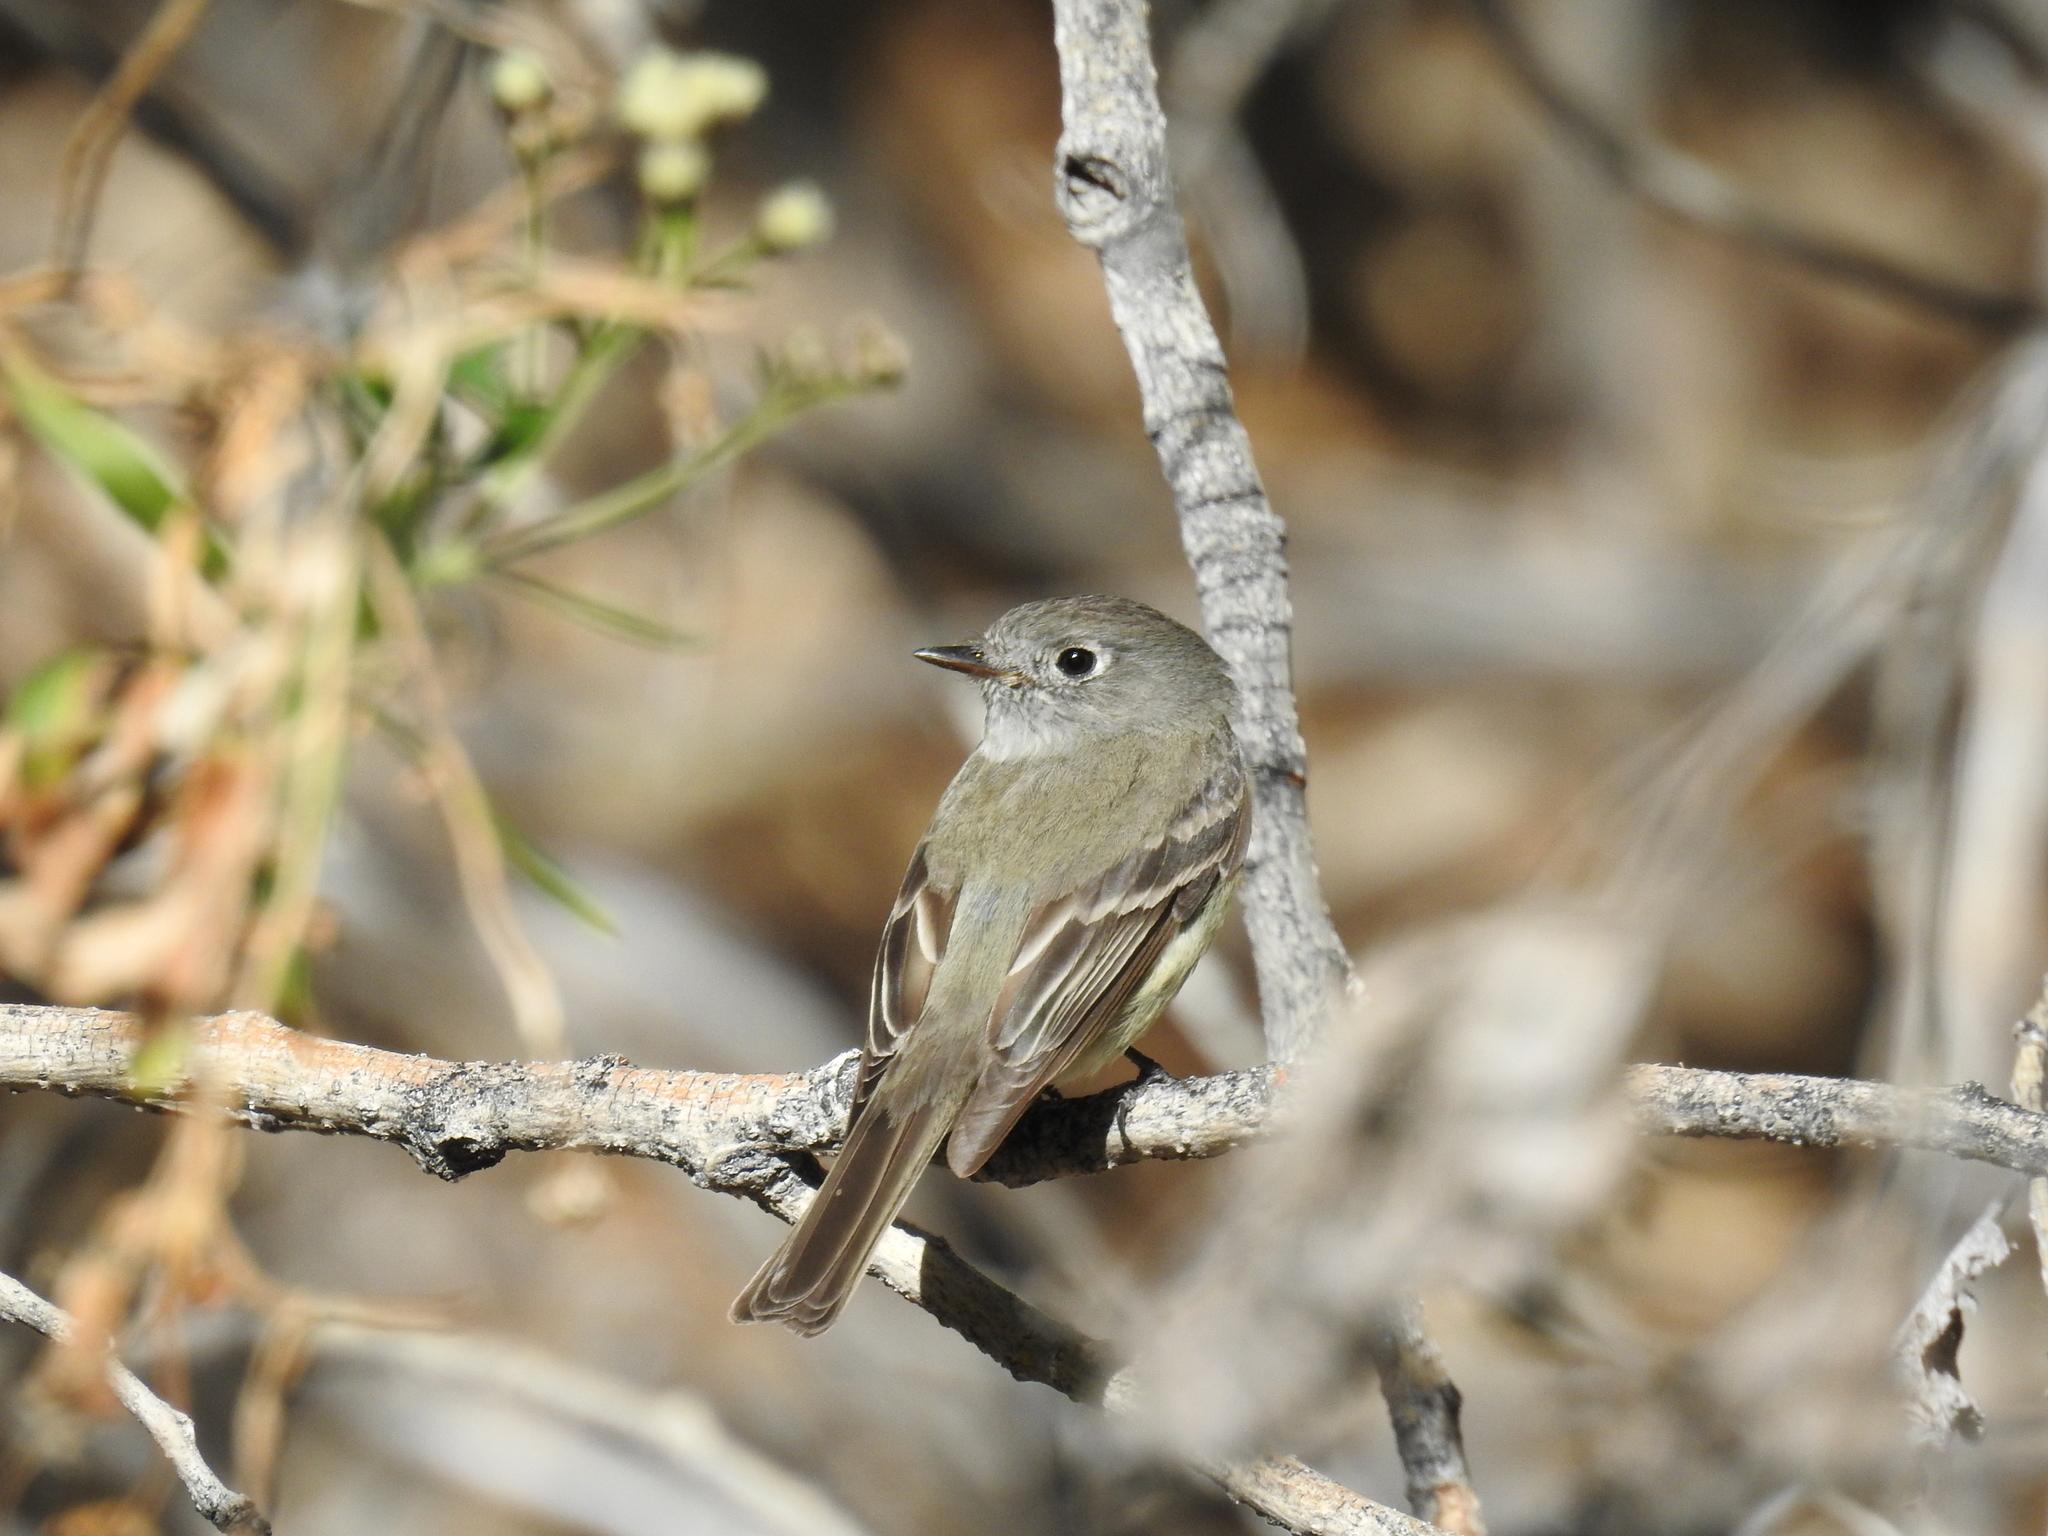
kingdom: Animalia
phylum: Chordata
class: Aves
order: Passeriformes
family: Tyrannidae
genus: Empidonax
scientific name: Empidonax hammondii
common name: Hammond's flycatcher
